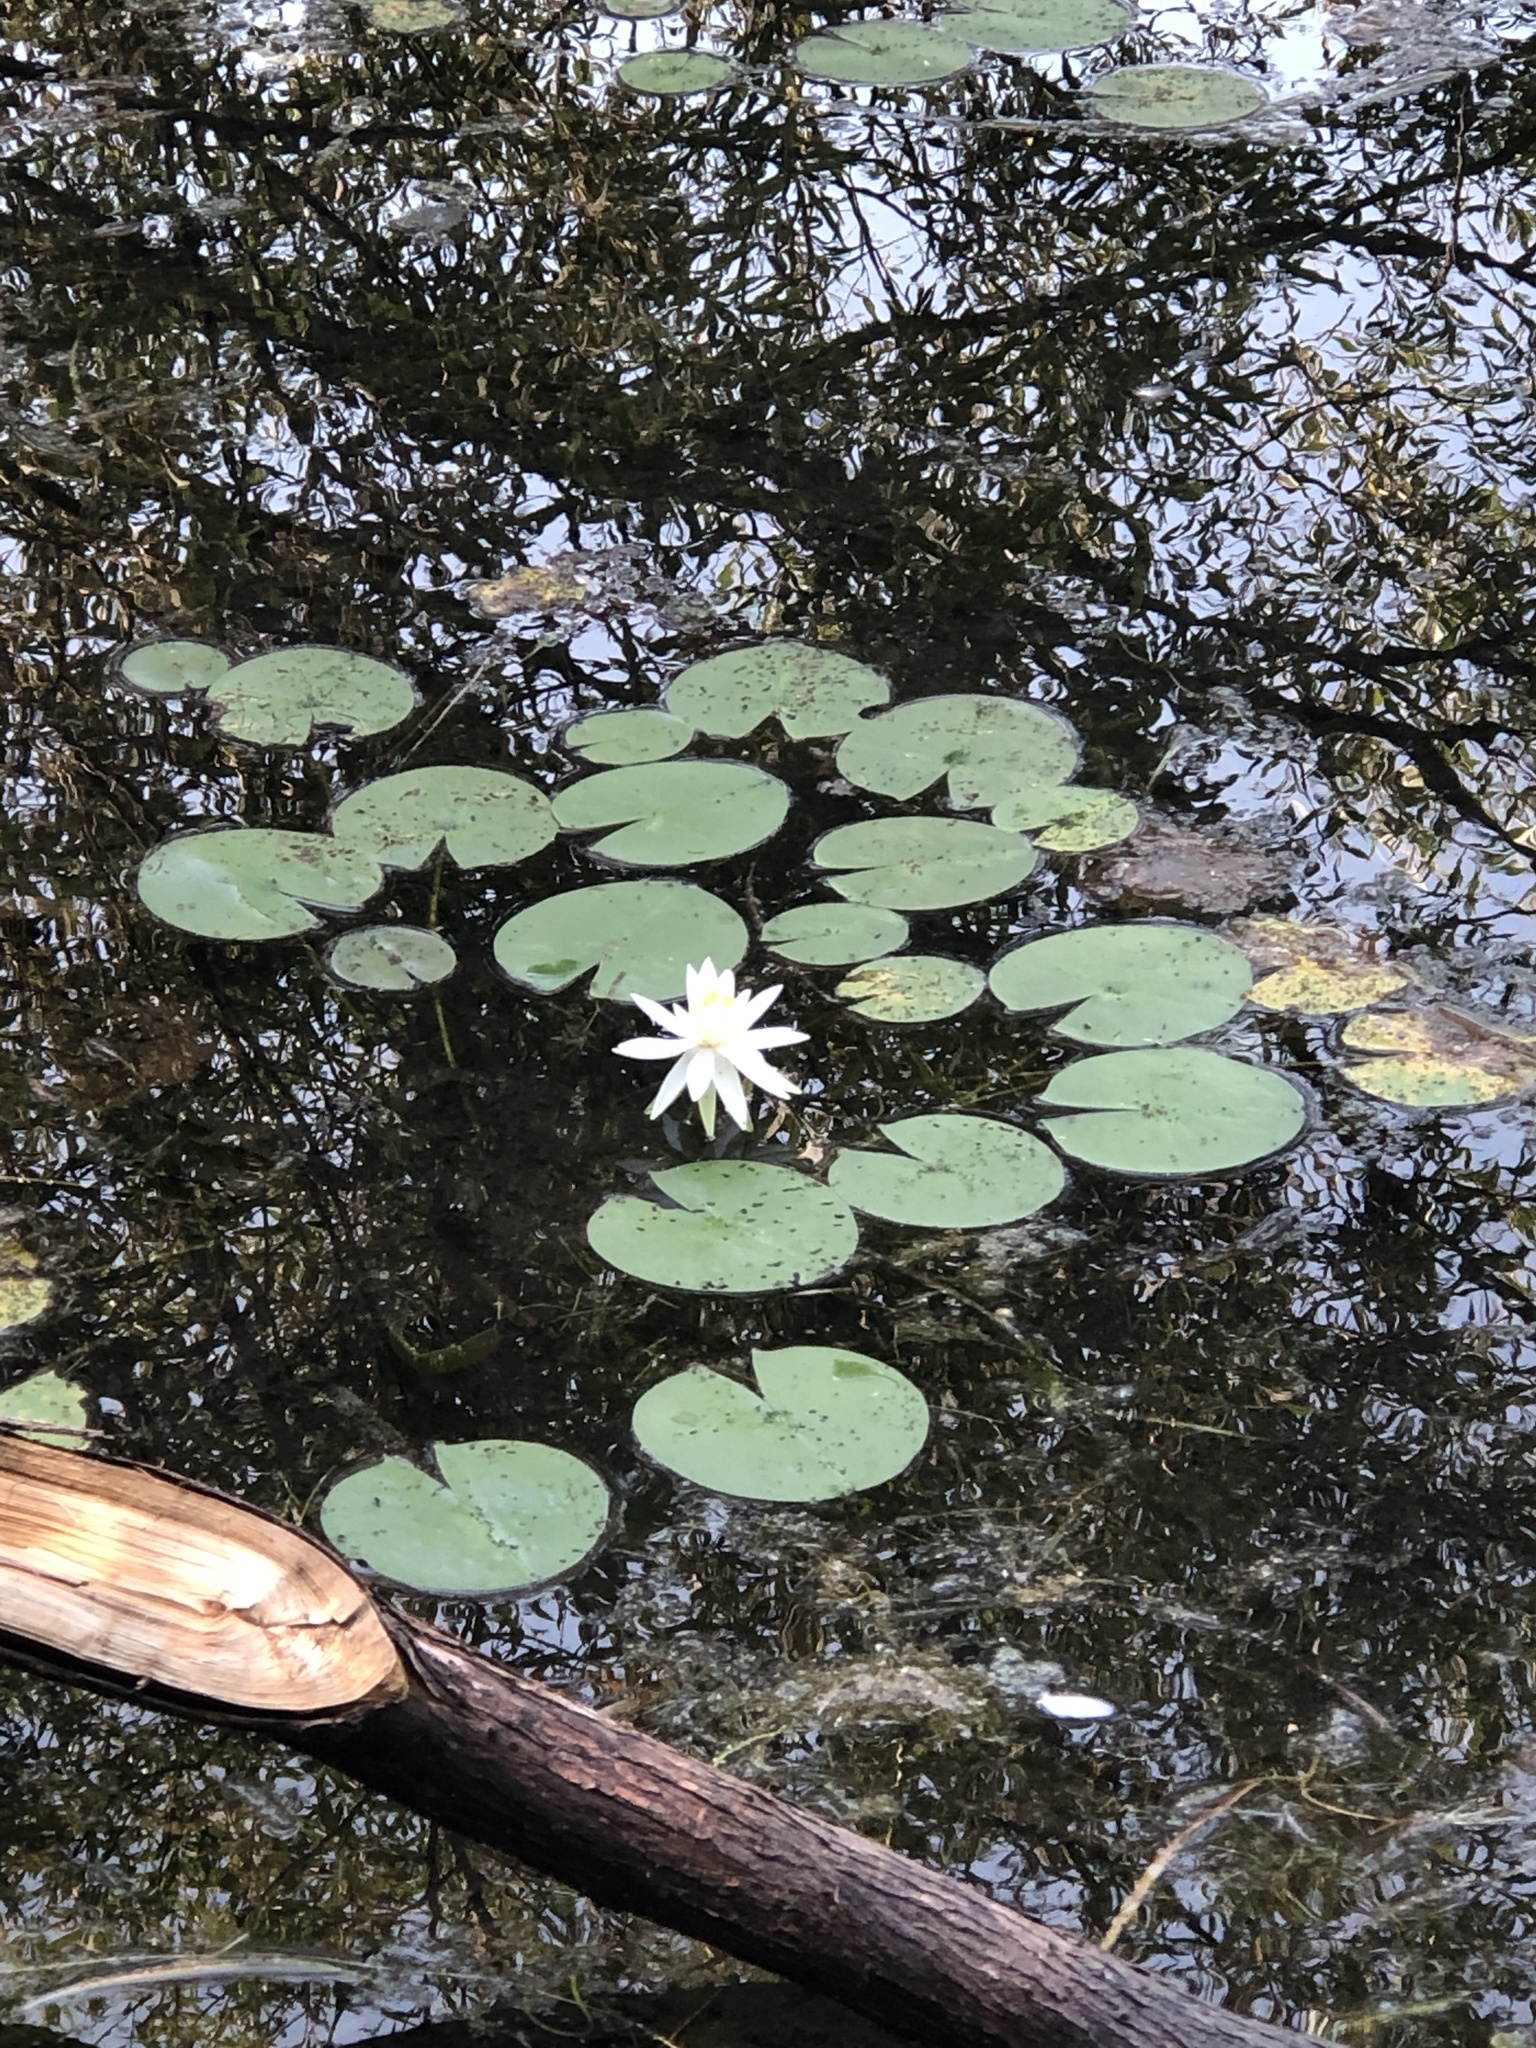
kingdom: Plantae
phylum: Tracheophyta
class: Magnoliopsida
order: Nymphaeales
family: Nymphaeaceae
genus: Nymphaea
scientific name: Nymphaea odorata
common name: Fragrant water-lily
